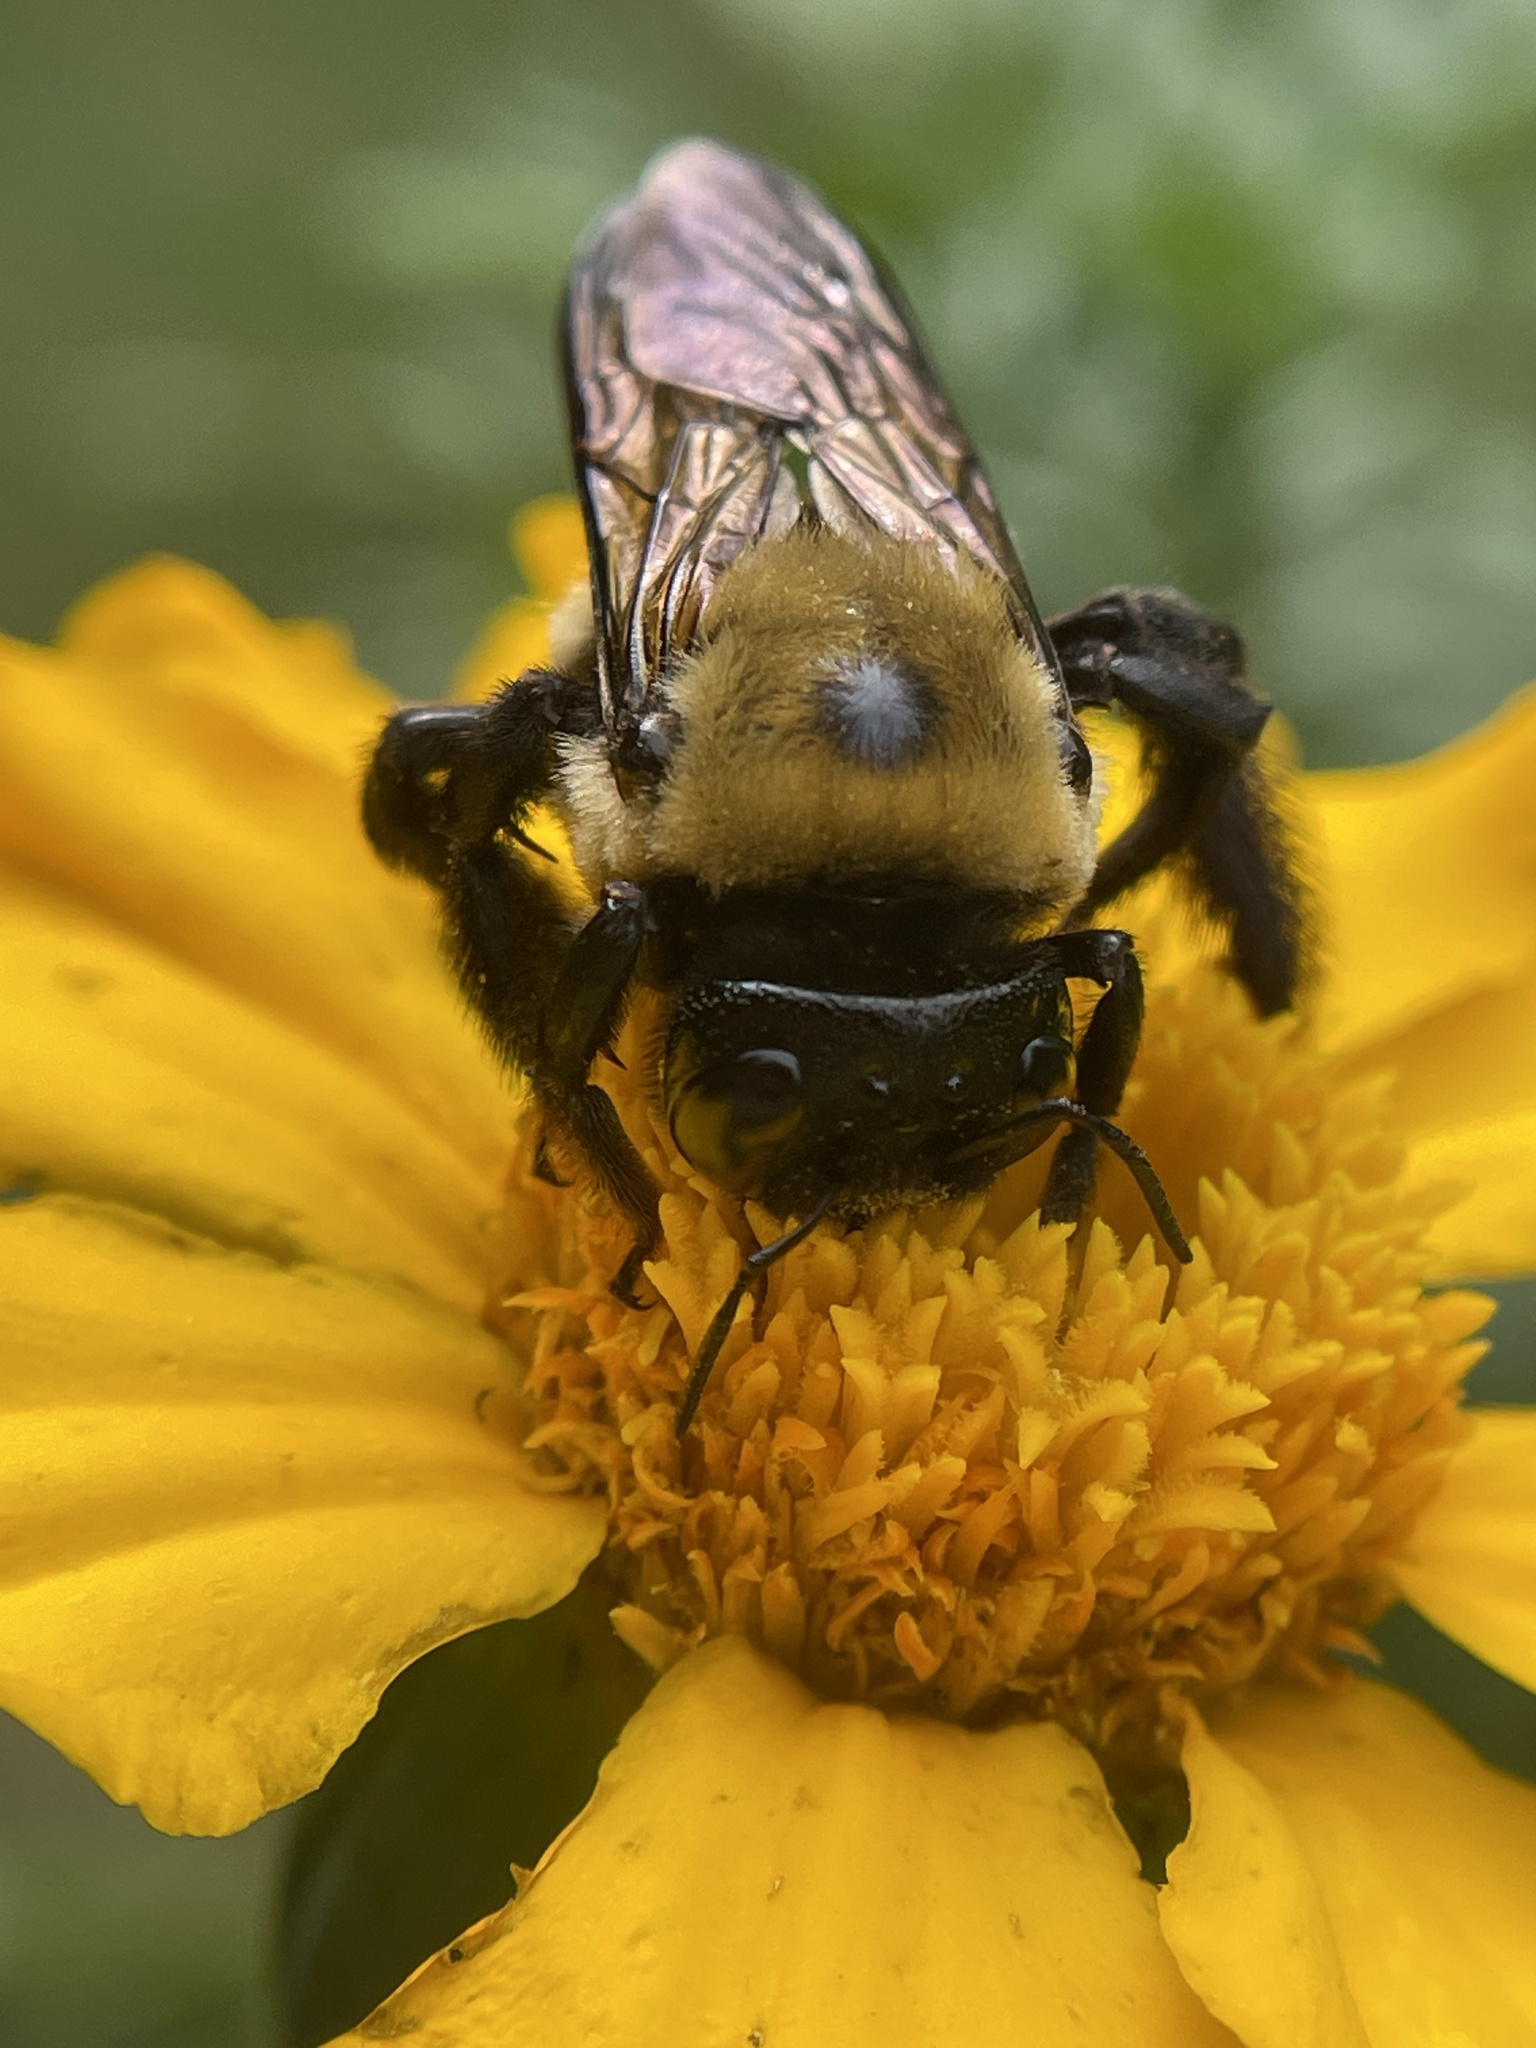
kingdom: Animalia
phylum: Arthropoda
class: Insecta
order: Hymenoptera
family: Apidae
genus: Xylocopa
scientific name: Xylocopa virginica
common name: Carpenter bee
